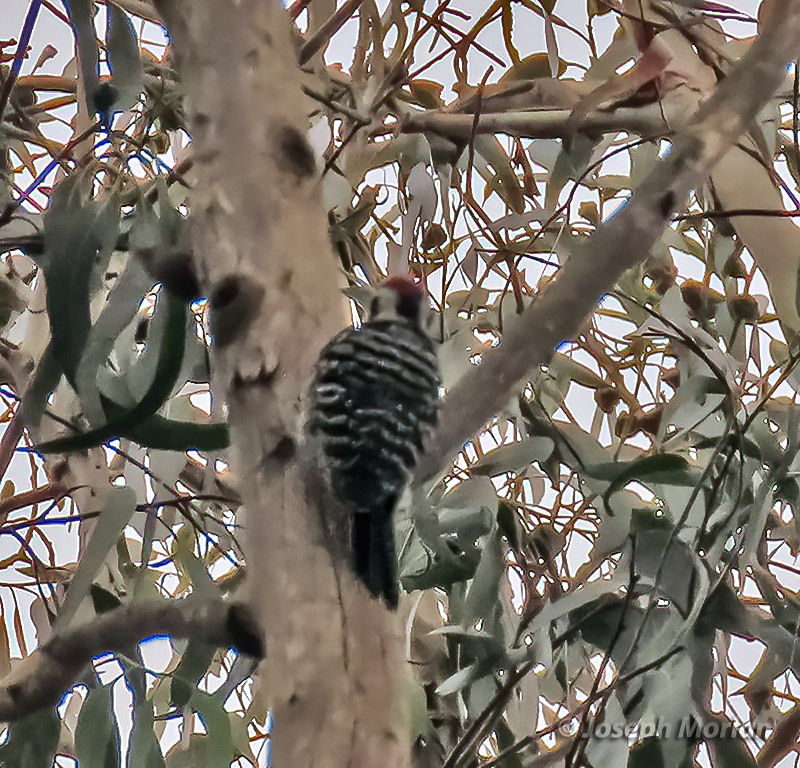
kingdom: Animalia
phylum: Chordata
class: Aves
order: Piciformes
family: Picidae
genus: Dryobates
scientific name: Dryobates nuttallii
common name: Nuttall's woodpecker
